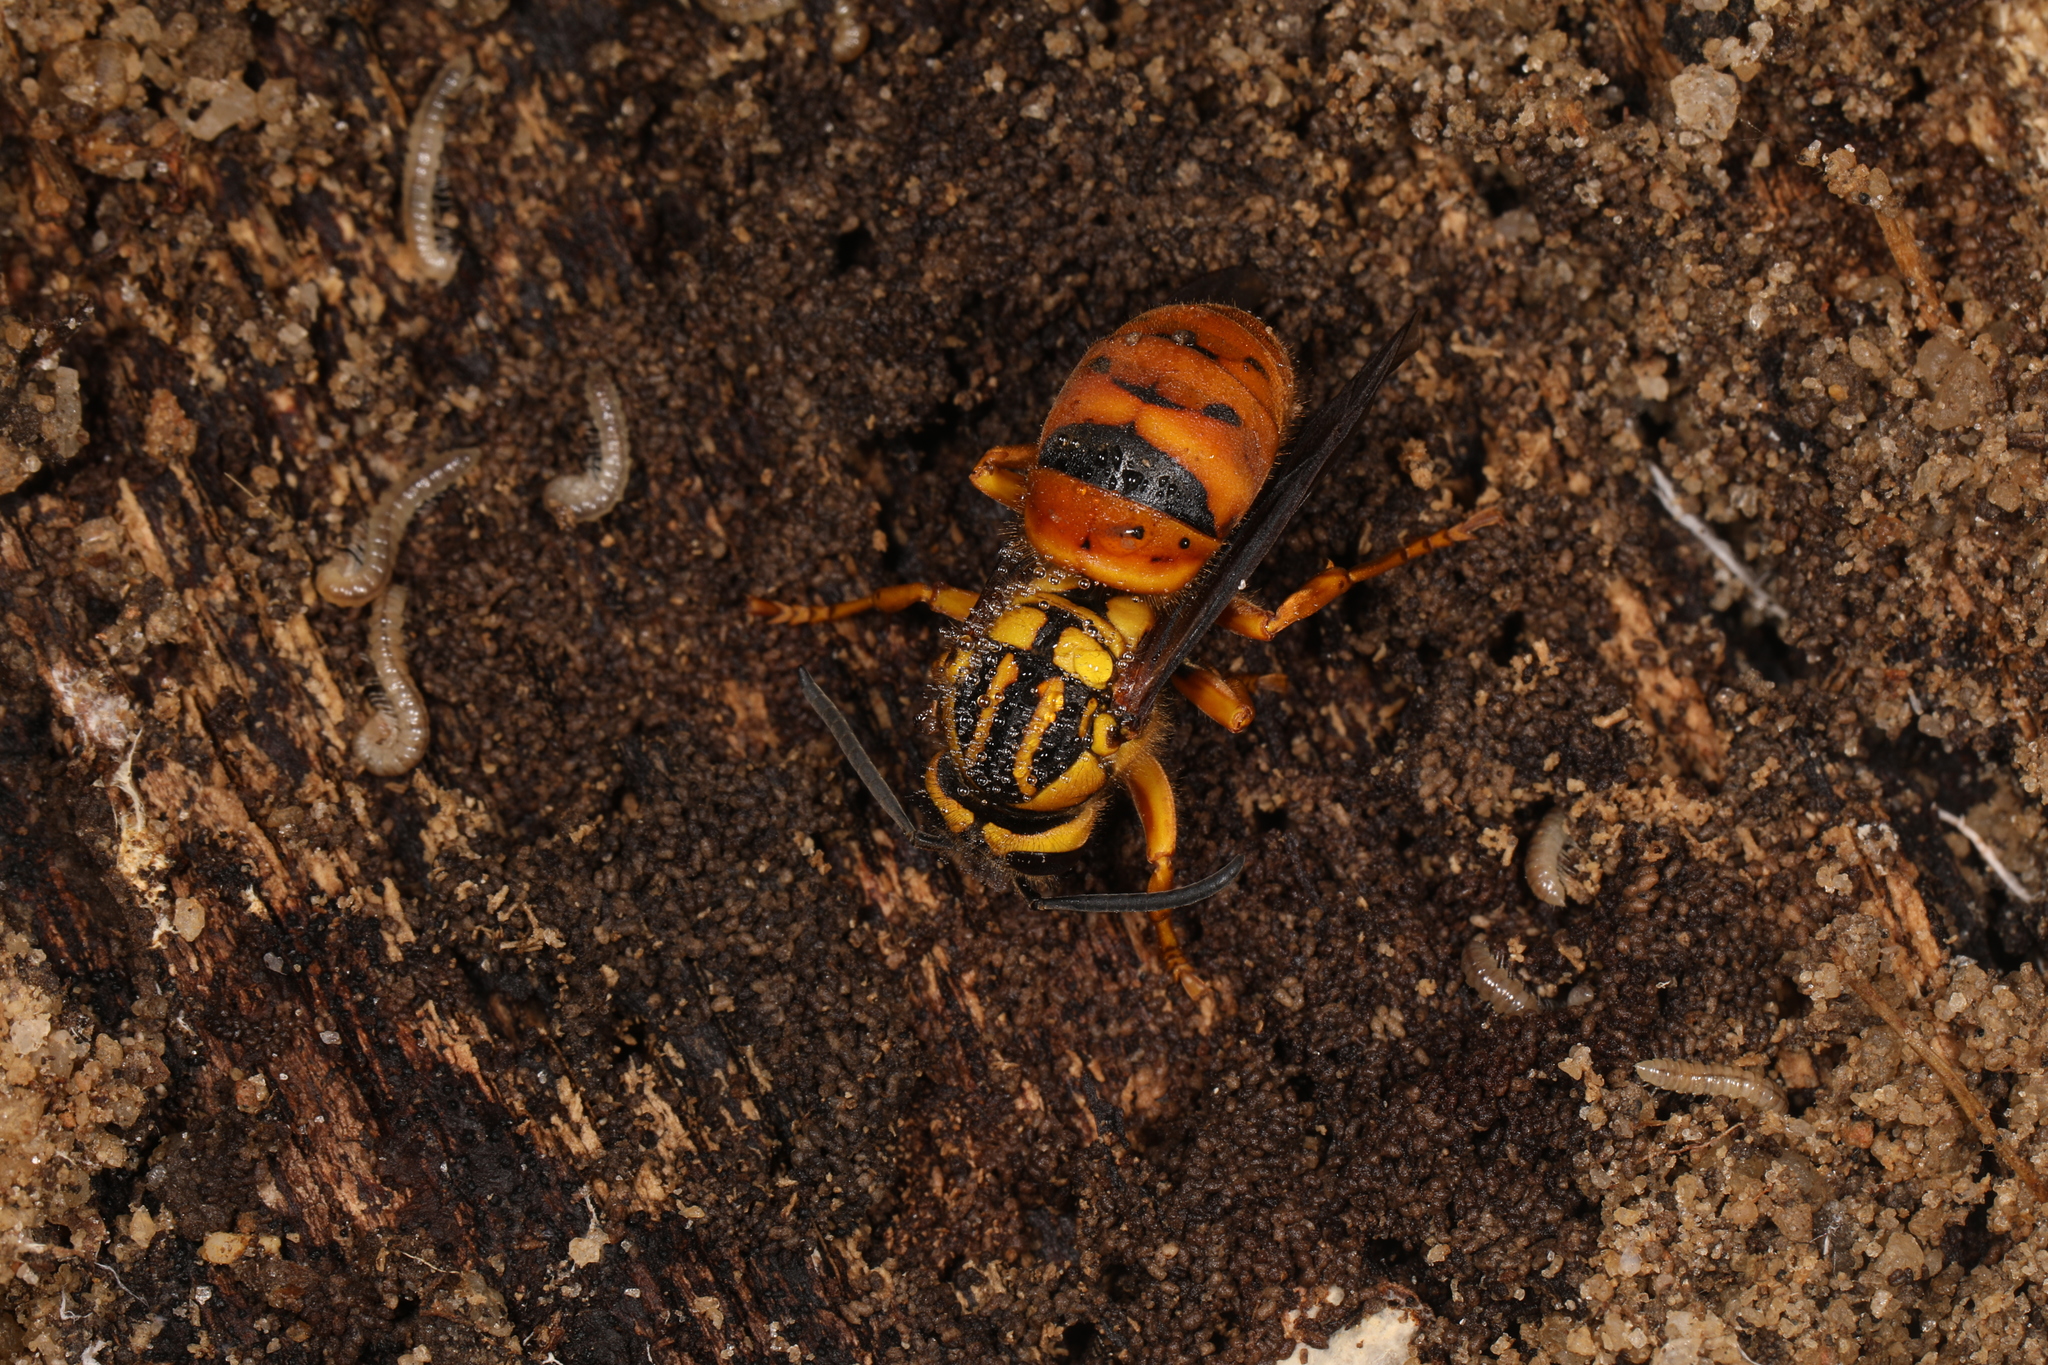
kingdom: Animalia
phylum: Arthropoda
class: Insecta
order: Hymenoptera
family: Vespidae
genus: Vespula
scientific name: Vespula squamosa
